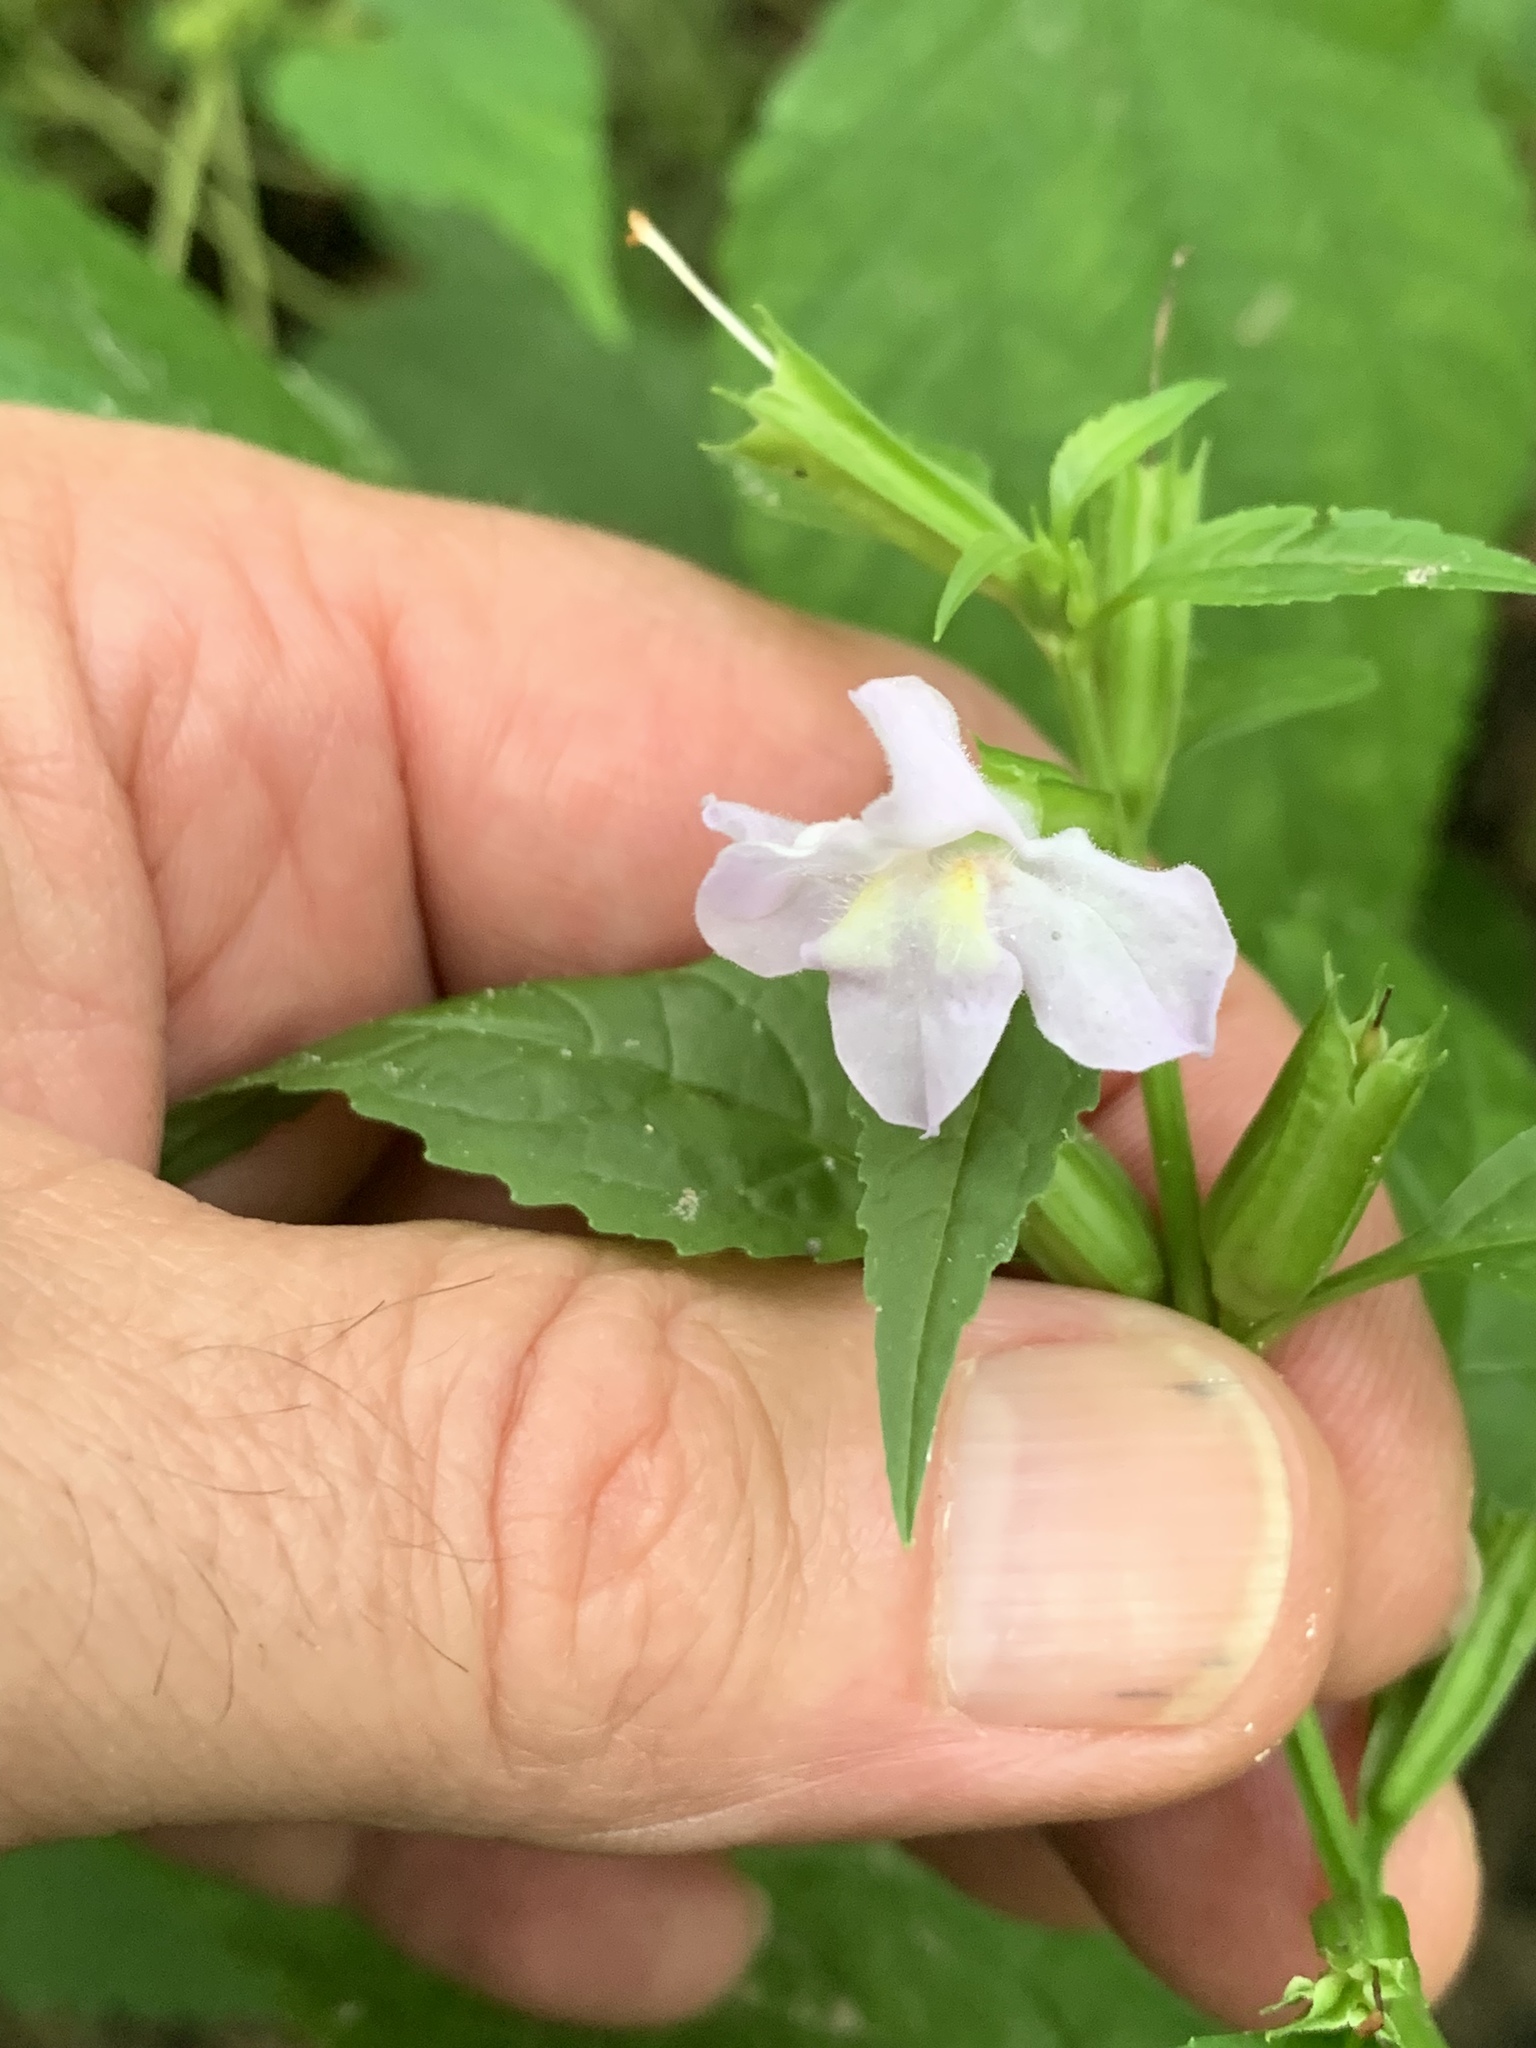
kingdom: Plantae
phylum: Tracheophyta
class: Magnoliopsida
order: Lamiales
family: Phrymaceae
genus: Mimulus
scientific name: Mimulus alatus
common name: Sharp-wing monkey-flower
